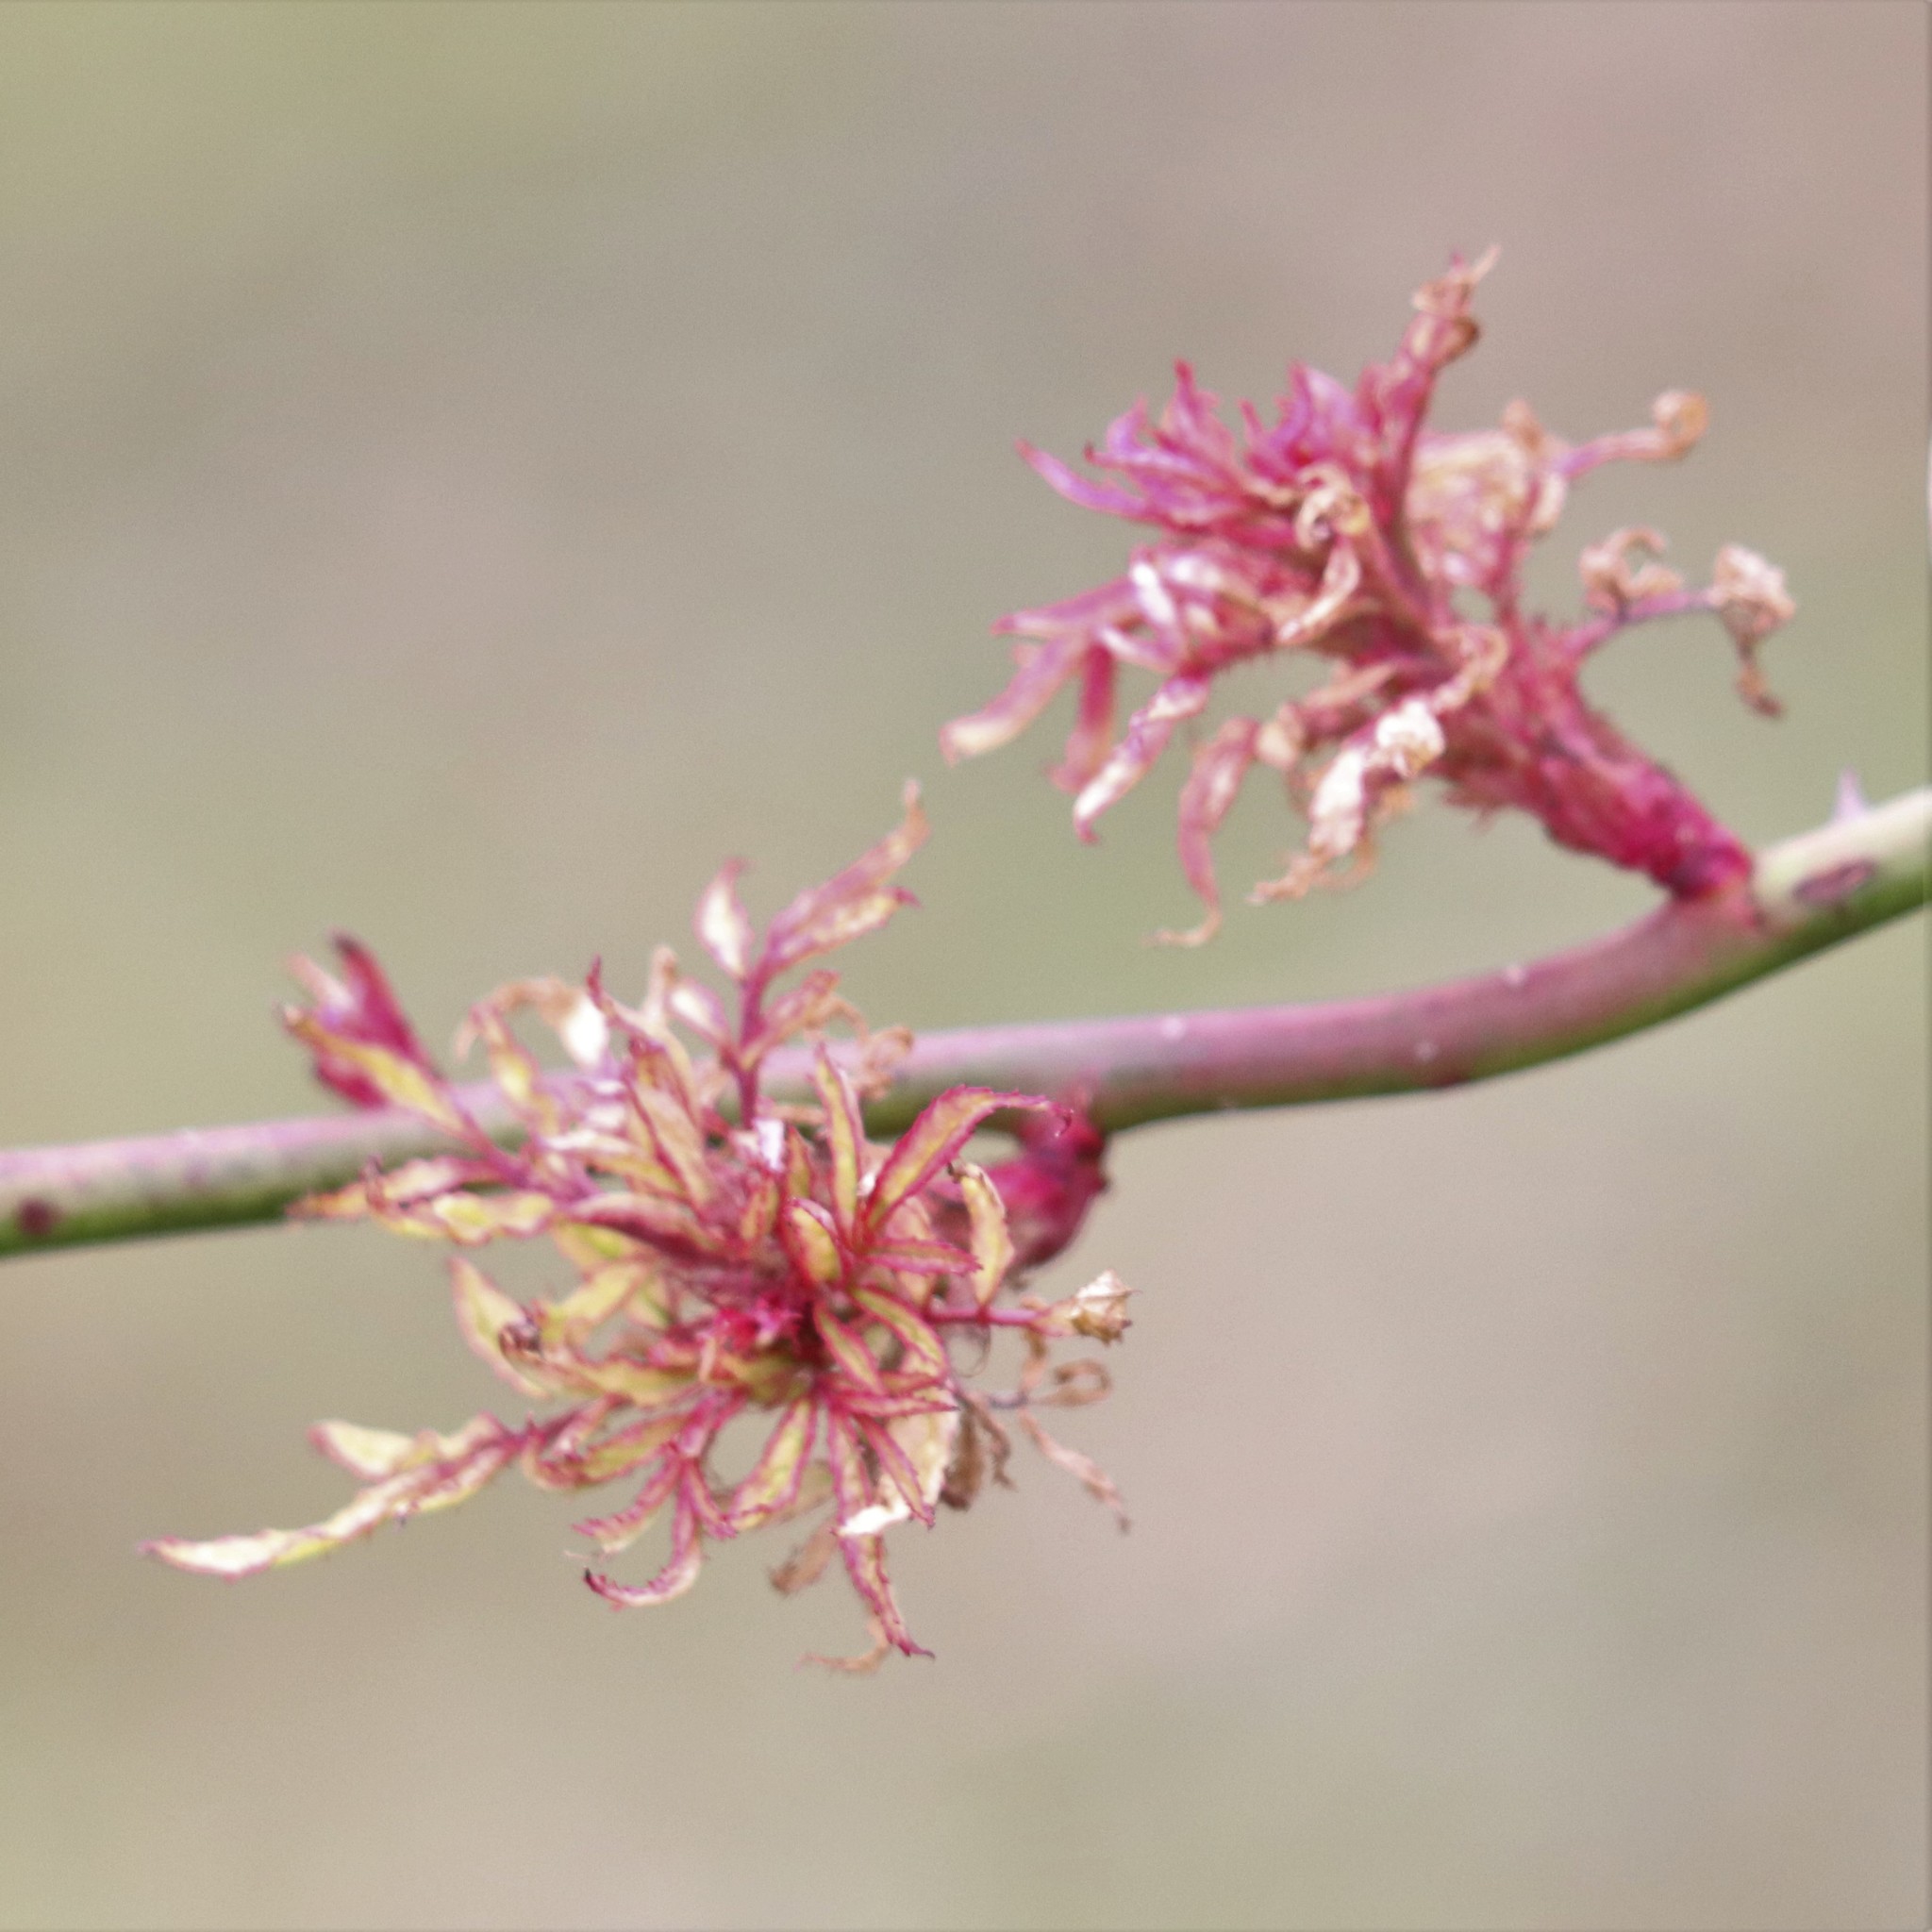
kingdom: Viruses
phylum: Negarnaviricota
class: Ellioviricetes
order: Bunyavirales
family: Fimoviridae
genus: Emaravirus
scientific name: Emaravirus rosae
